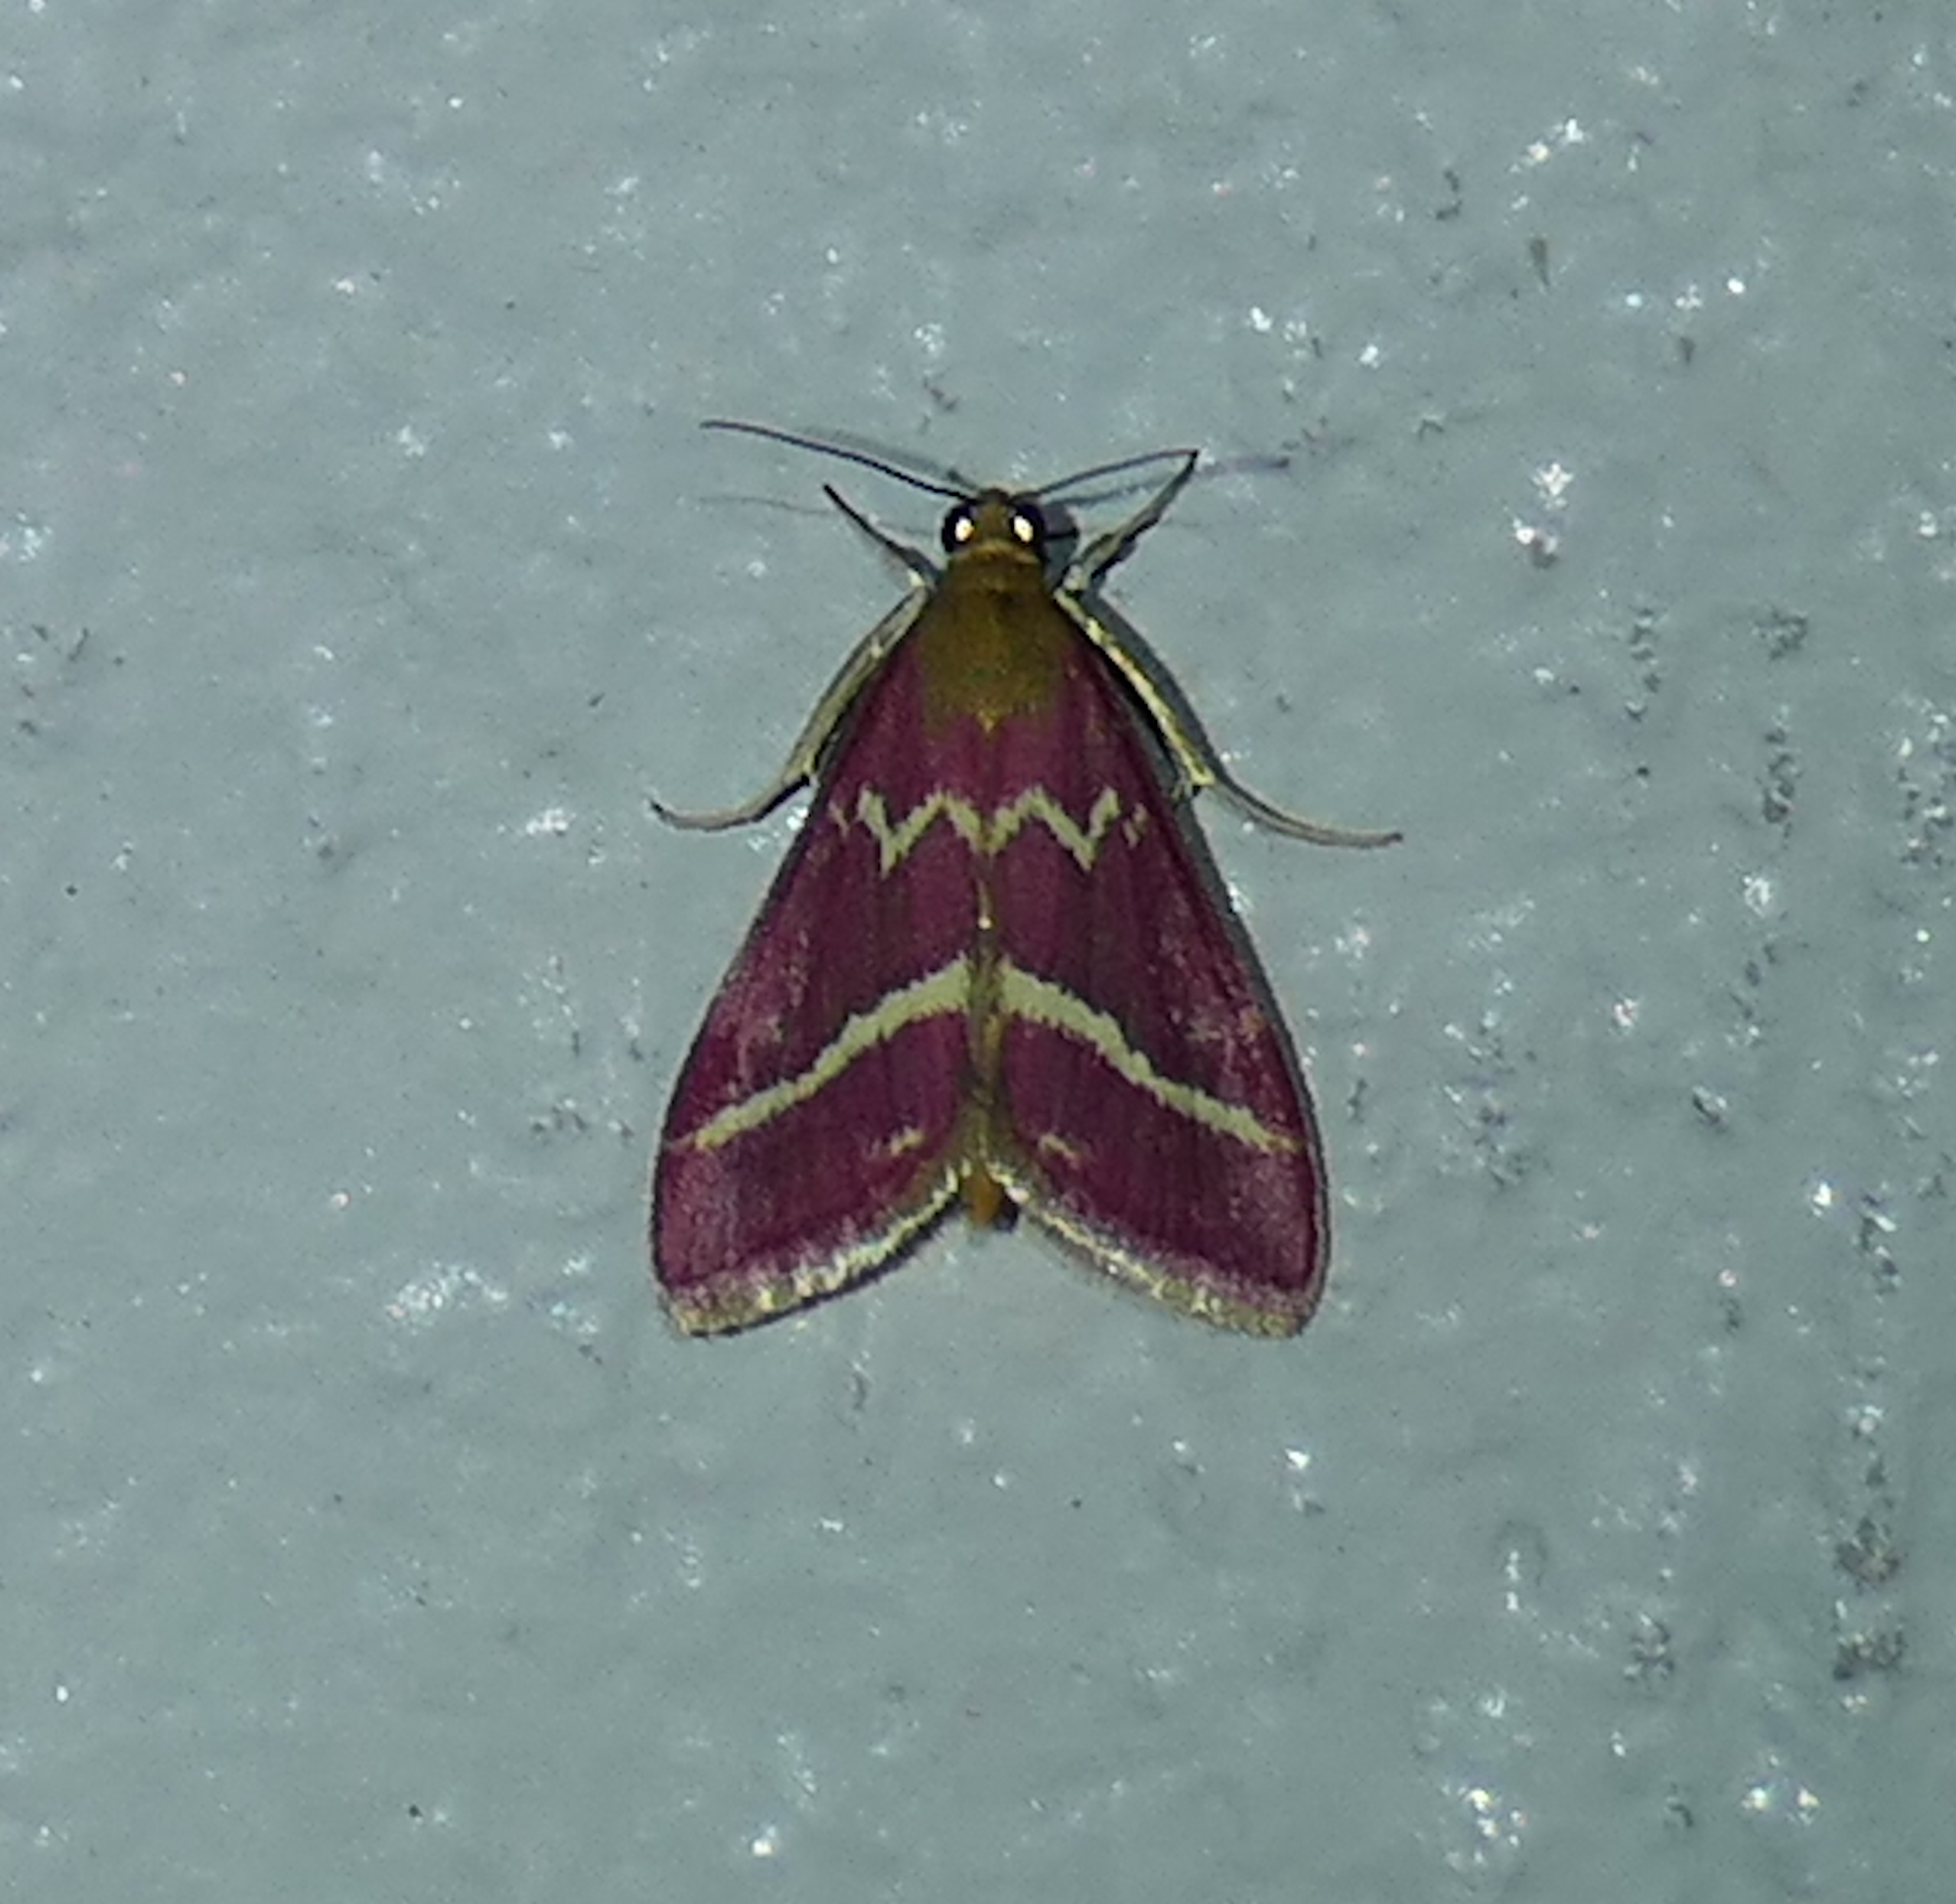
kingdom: Animalia
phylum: Arthropoda
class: Insecta
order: Lepidoptera
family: Crambidae
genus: Pyrausta
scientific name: Pyrausta volupialis
